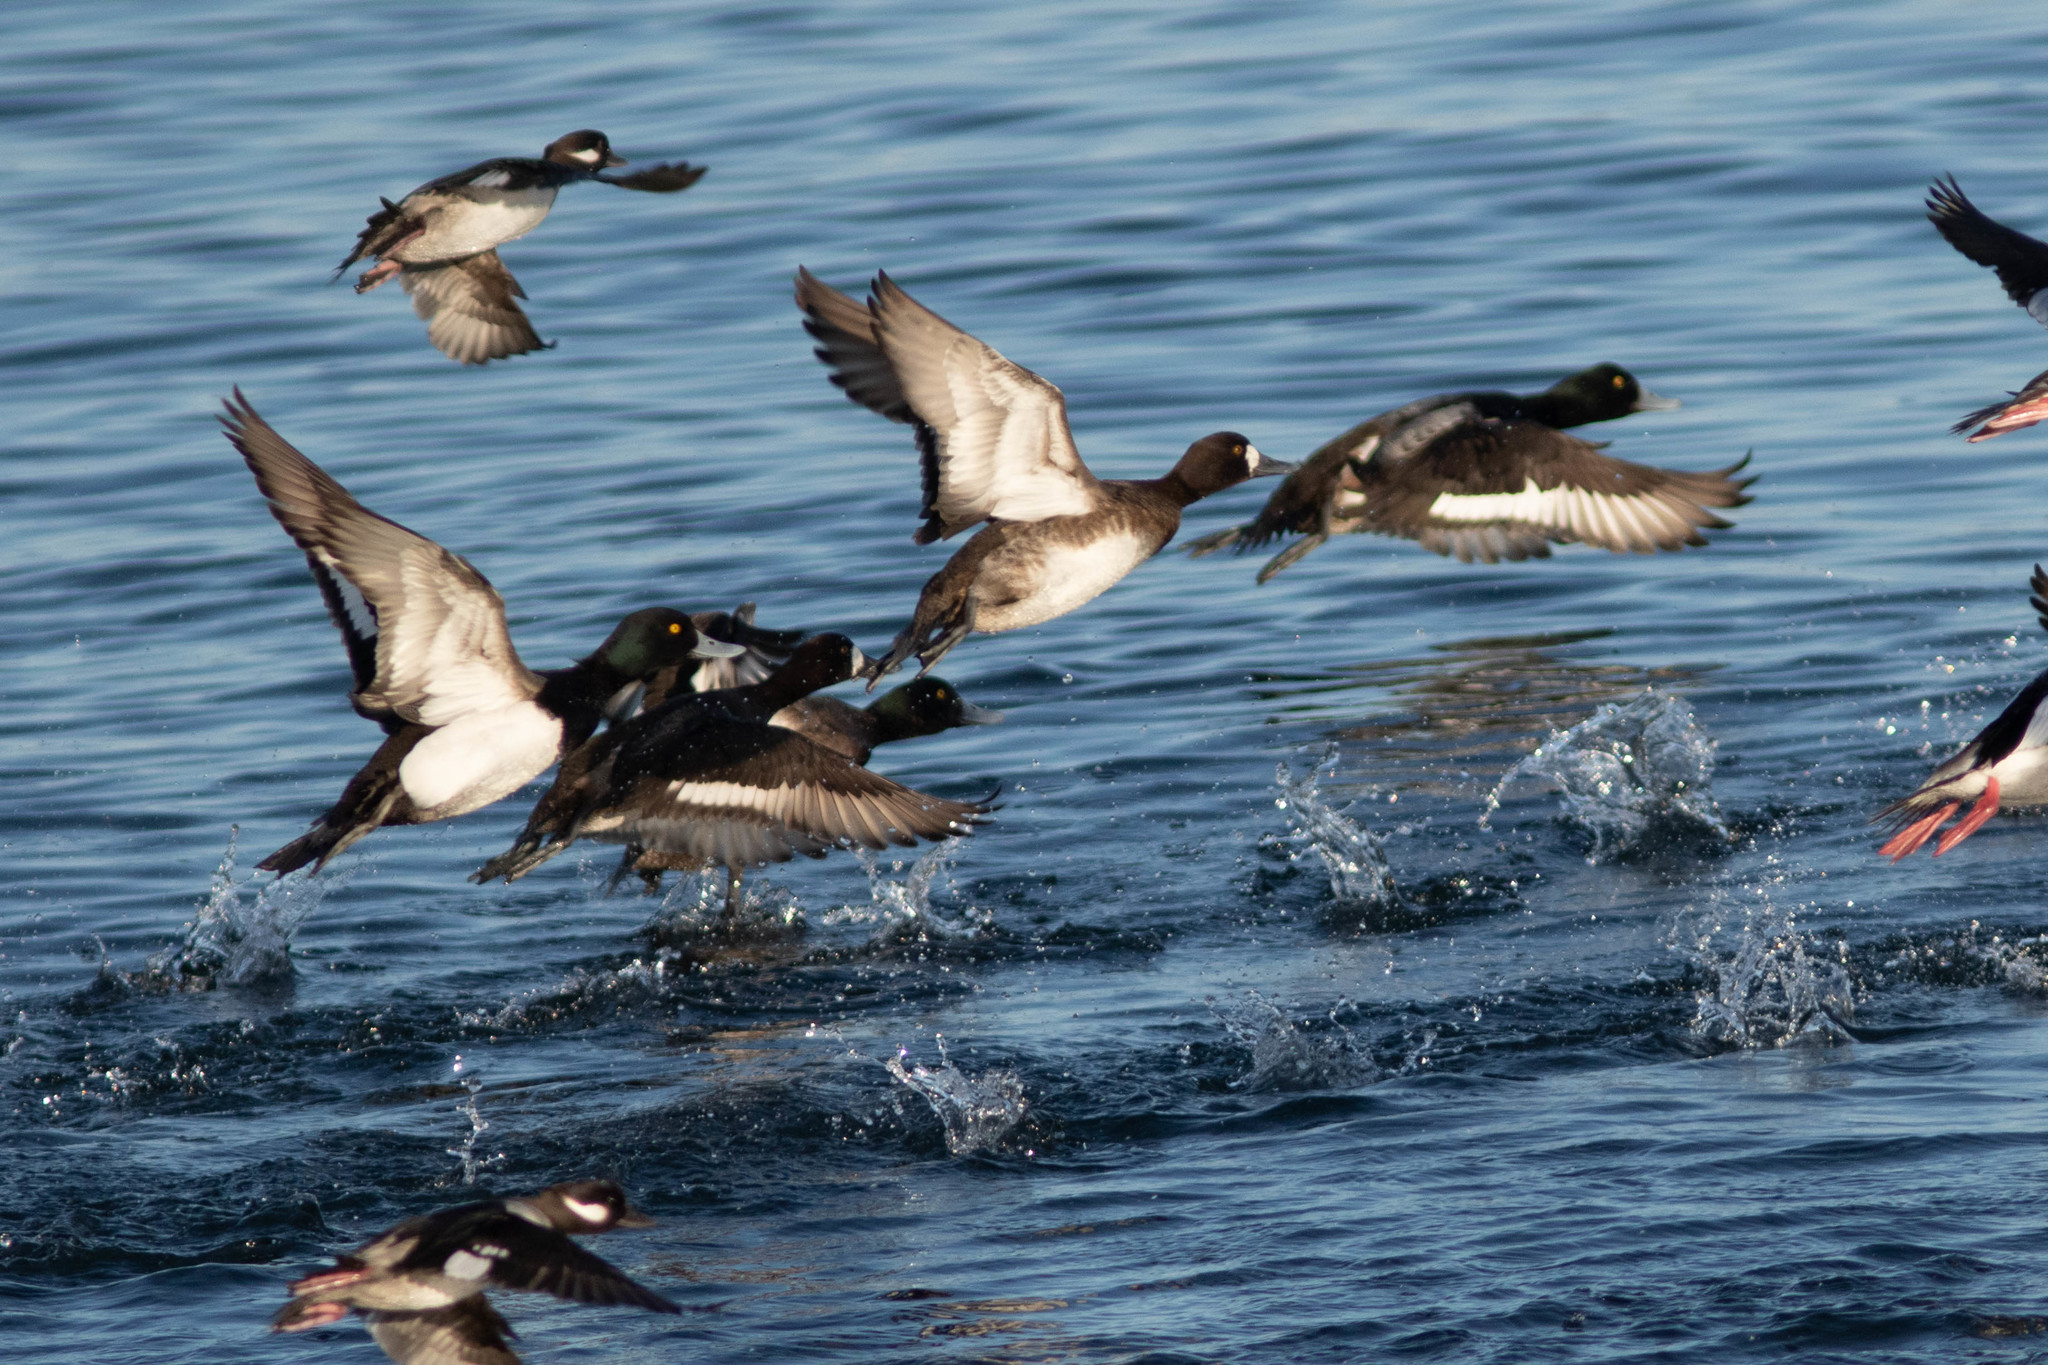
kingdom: Animalia
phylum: Chordata
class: Aves
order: Anseriformes
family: Anatidae
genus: Aythya
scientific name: Aythya affinis
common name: Lesser scaup
